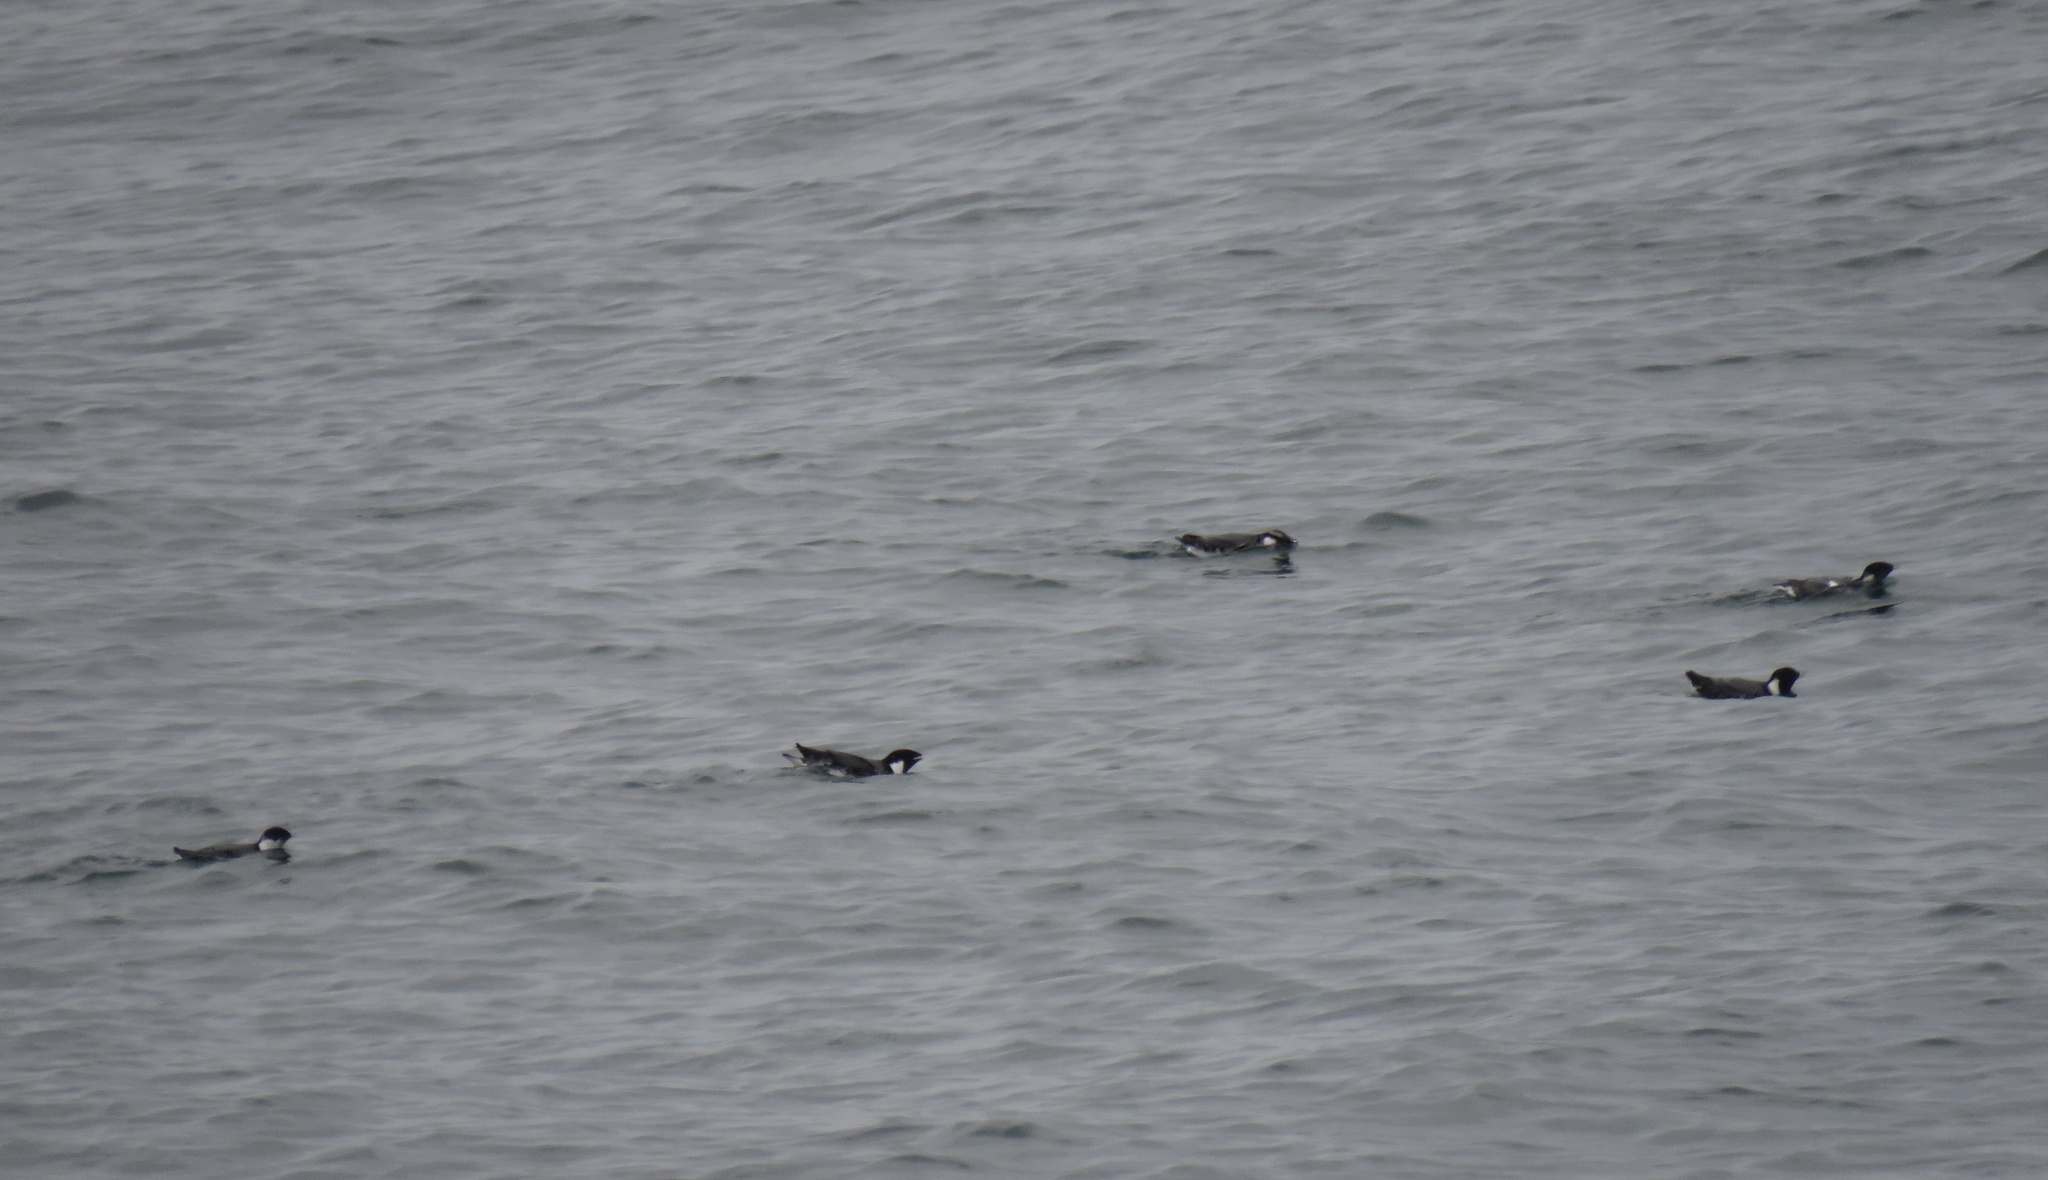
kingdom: Animalia
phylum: Chordata
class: Aves
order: Charadriiformes
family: Alcidae
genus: Synthliboramphus
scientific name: Synthliboramphus antiquus
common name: Ancient murrelet
